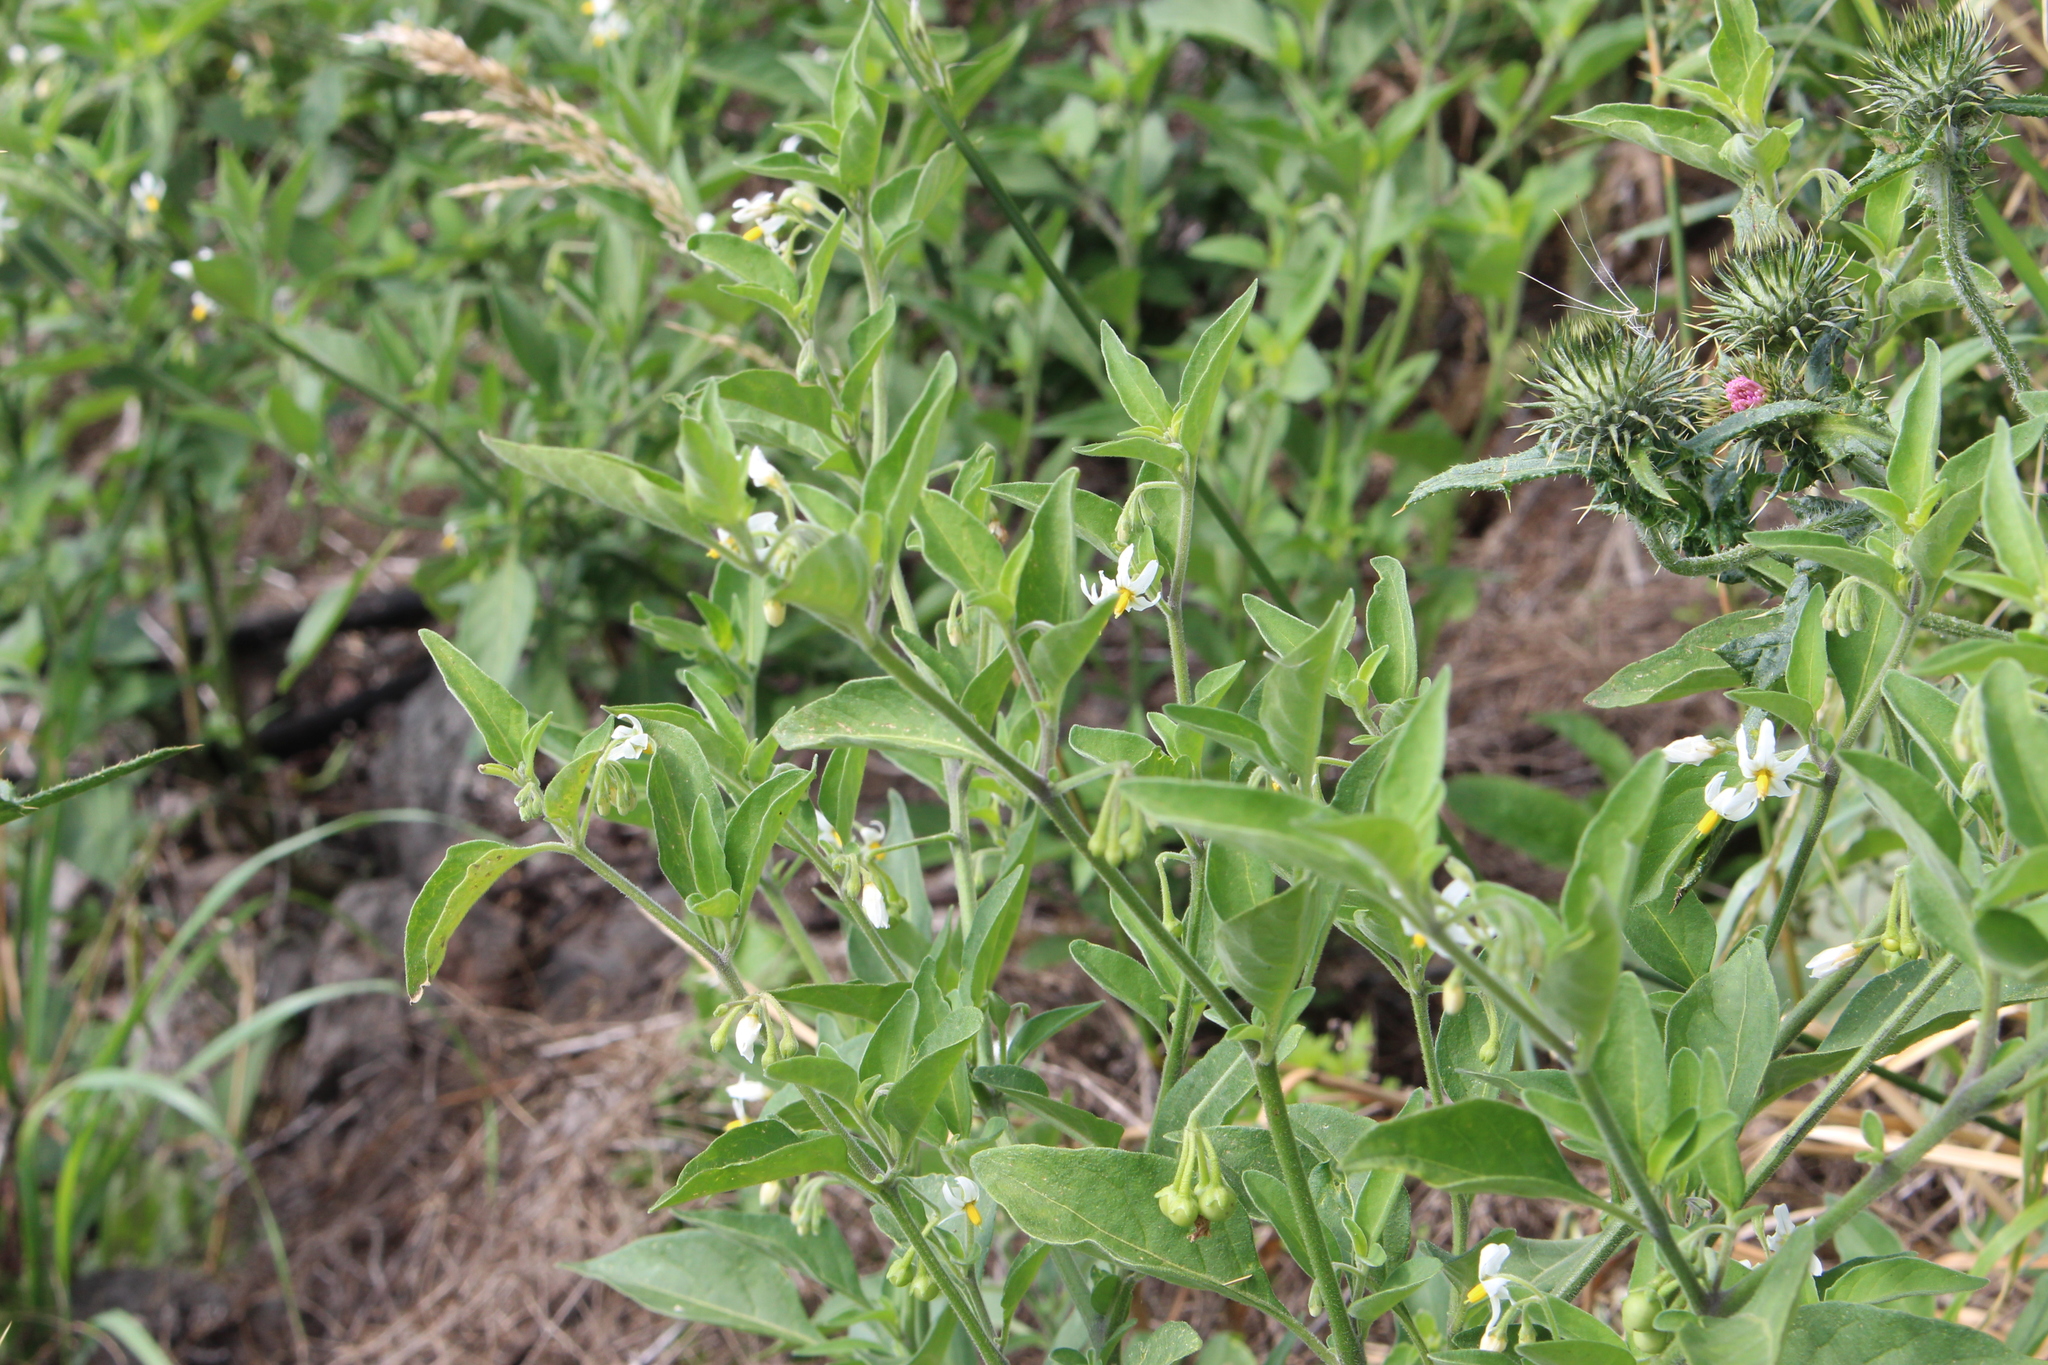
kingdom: Plantae
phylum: Tracheophyta
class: Magnoliopsida
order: Solanales
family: Solanaceae
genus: Solanum
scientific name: Solanum chenopodioides
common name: Tall nightshade
